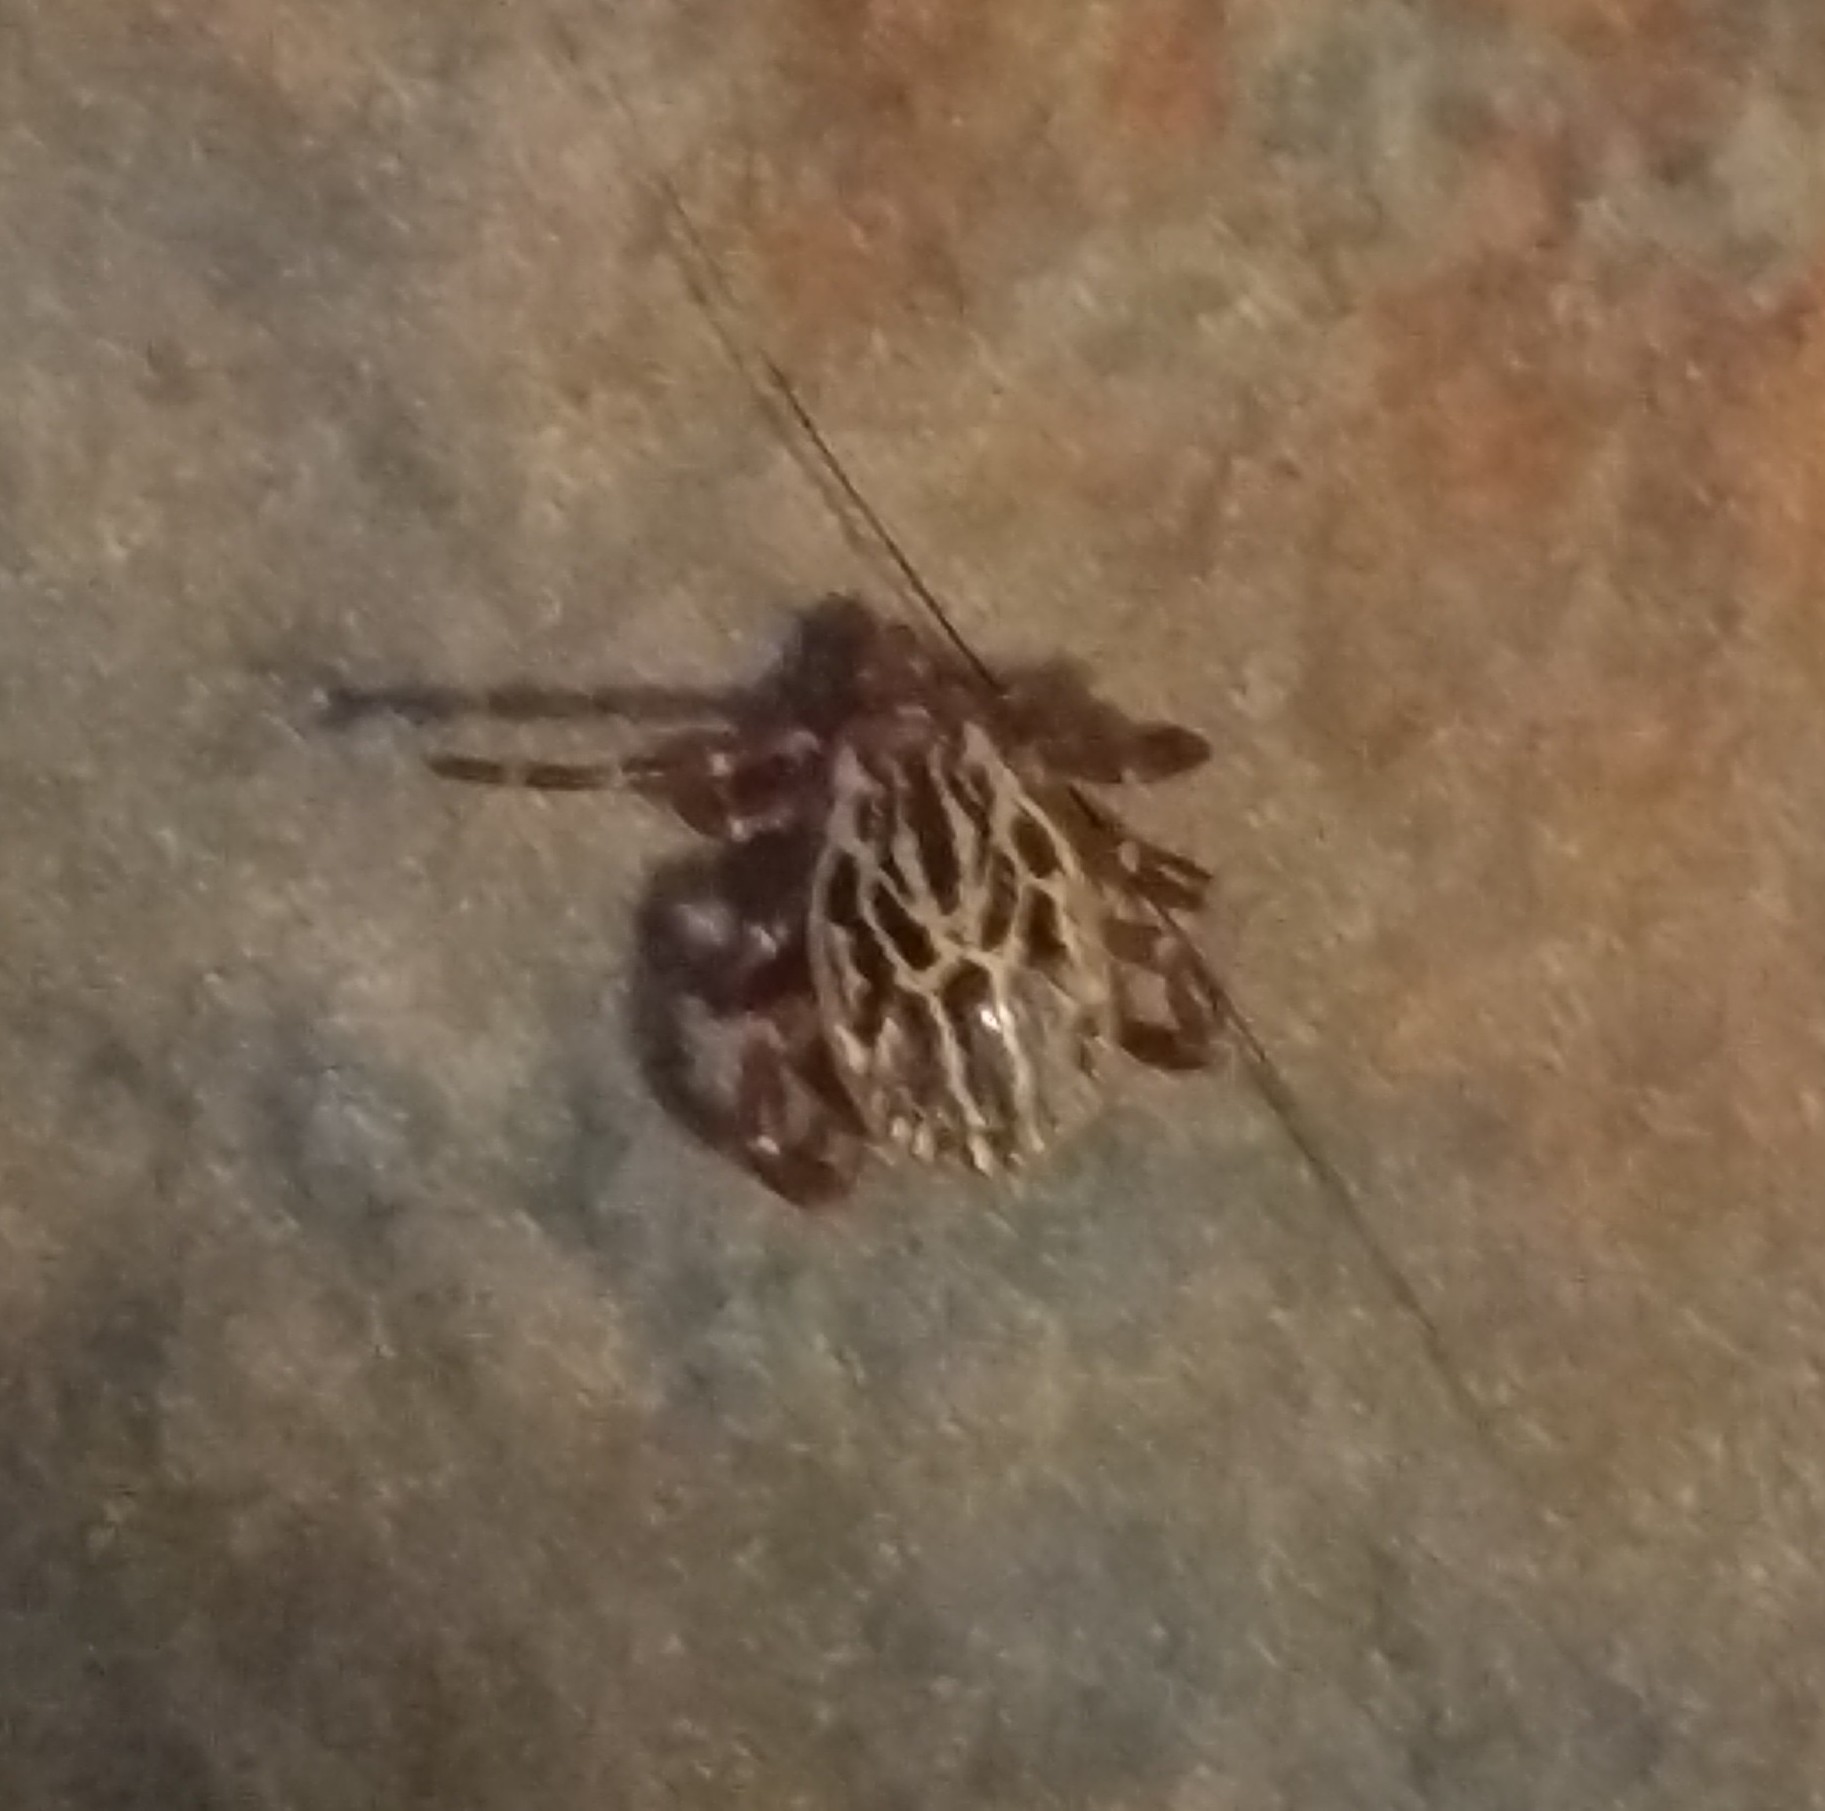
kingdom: Animalia
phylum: Arthropoda
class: Arachnida
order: Ixodida
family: Ixodidae
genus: Amblyomma
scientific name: Amblyomma maculatum
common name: Gulf coast tick
